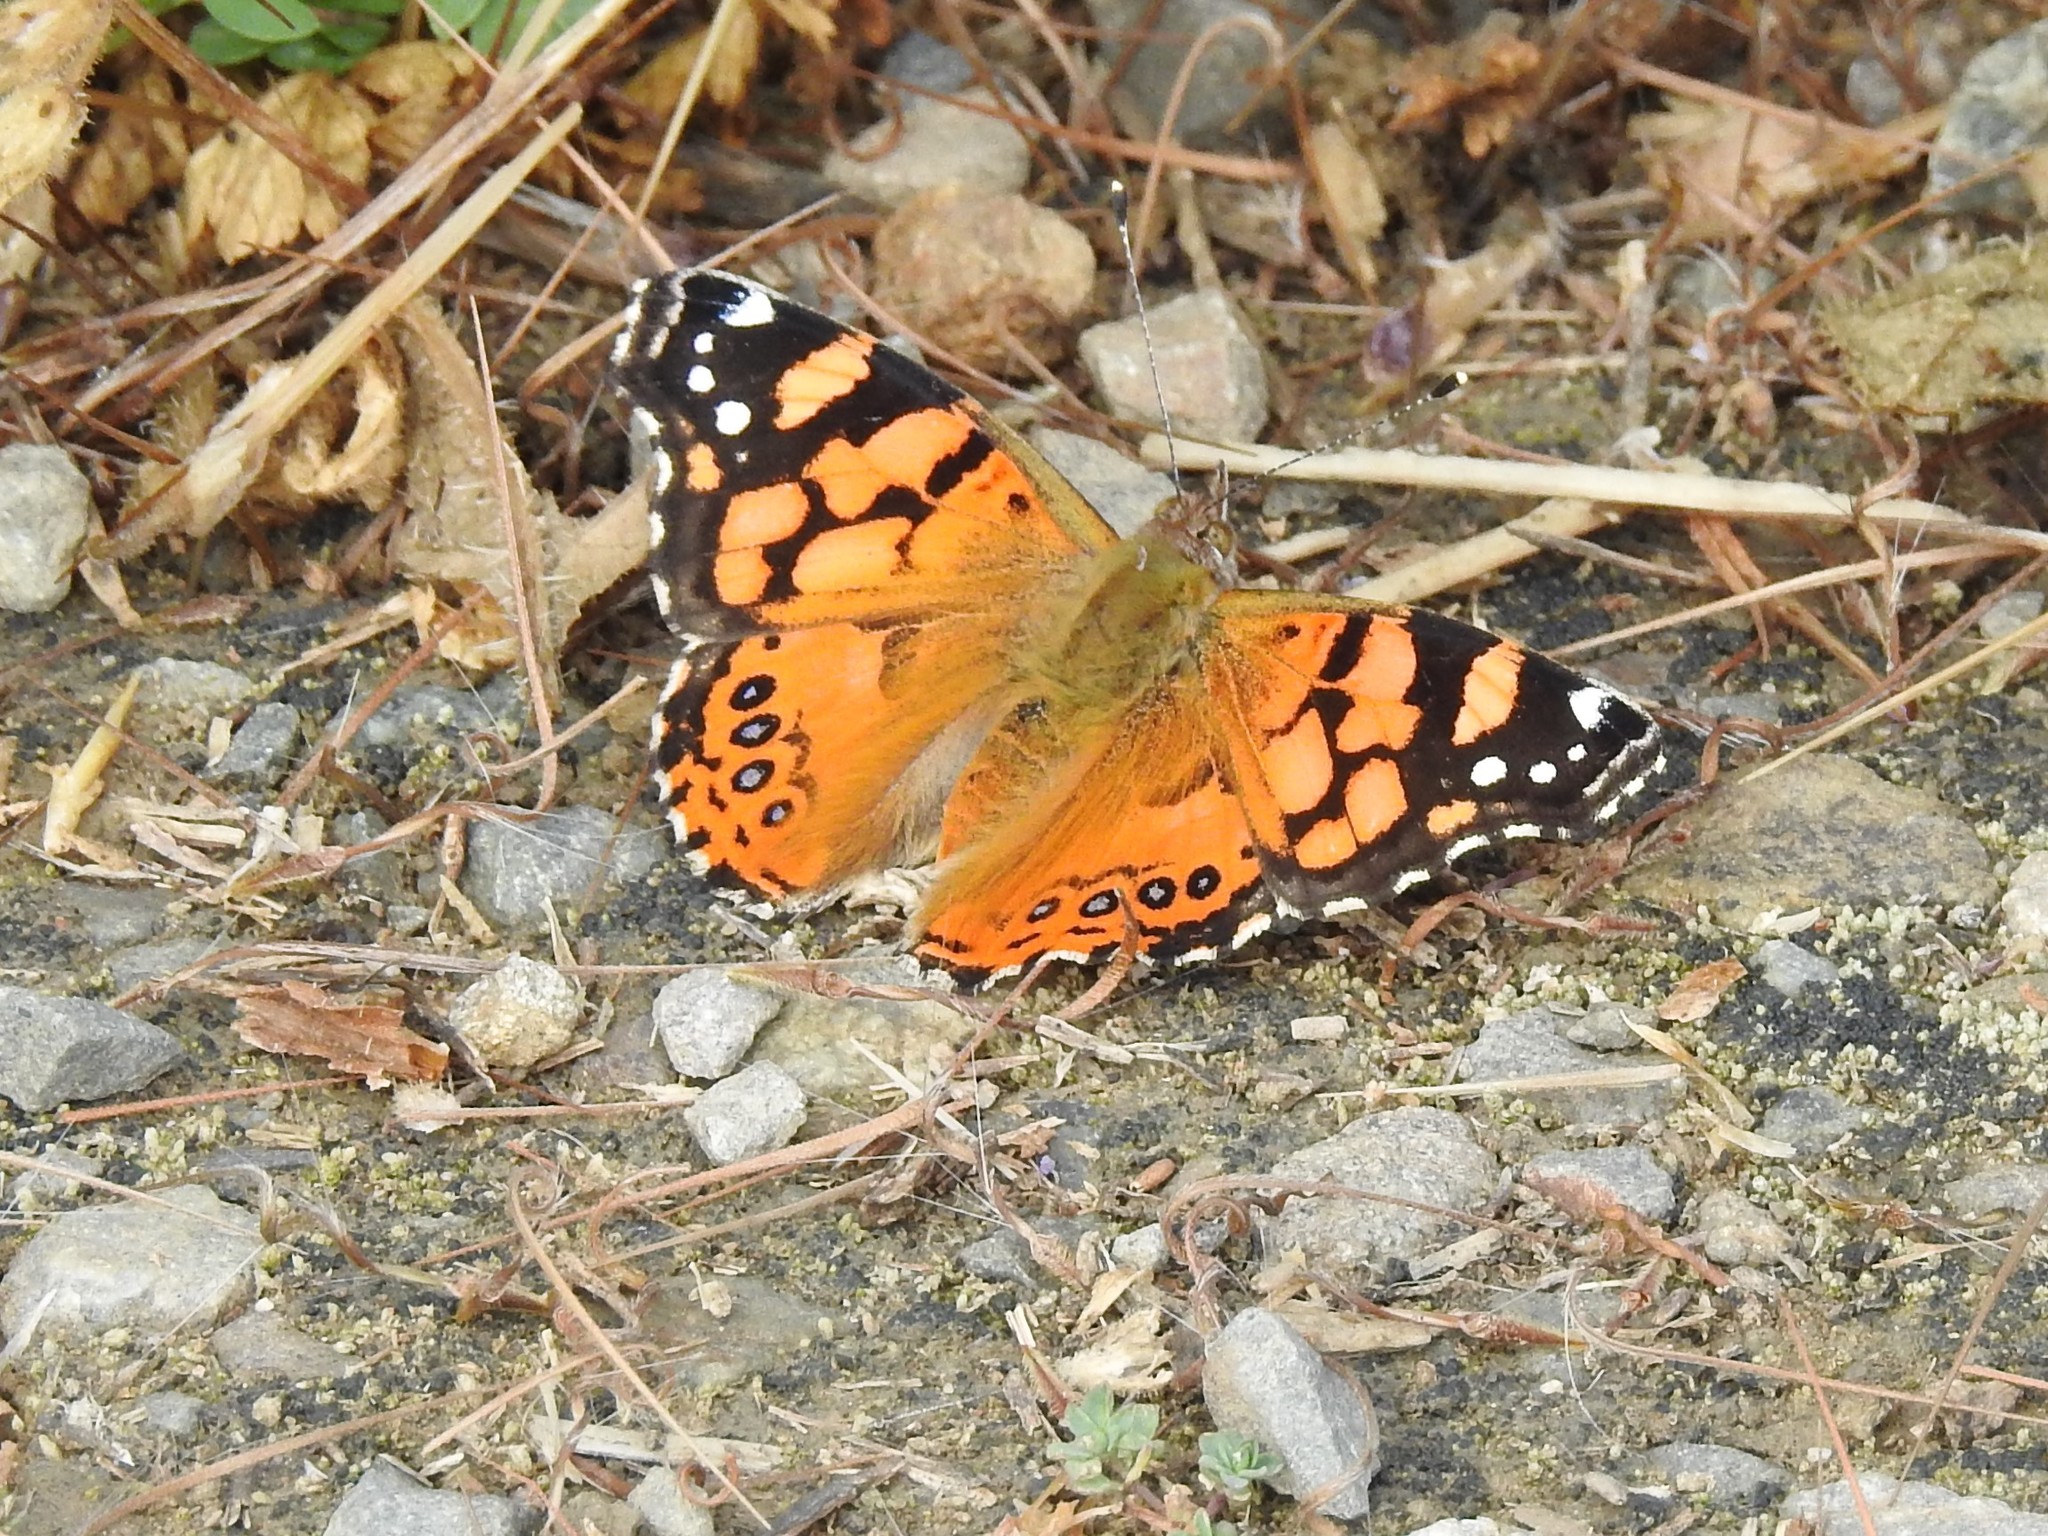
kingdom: Animalia
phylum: Arthropoda
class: Insecta
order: Lepidoptera
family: Nymphalidae
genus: Vanessa
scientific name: Vanessa annabella
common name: West coast lady
